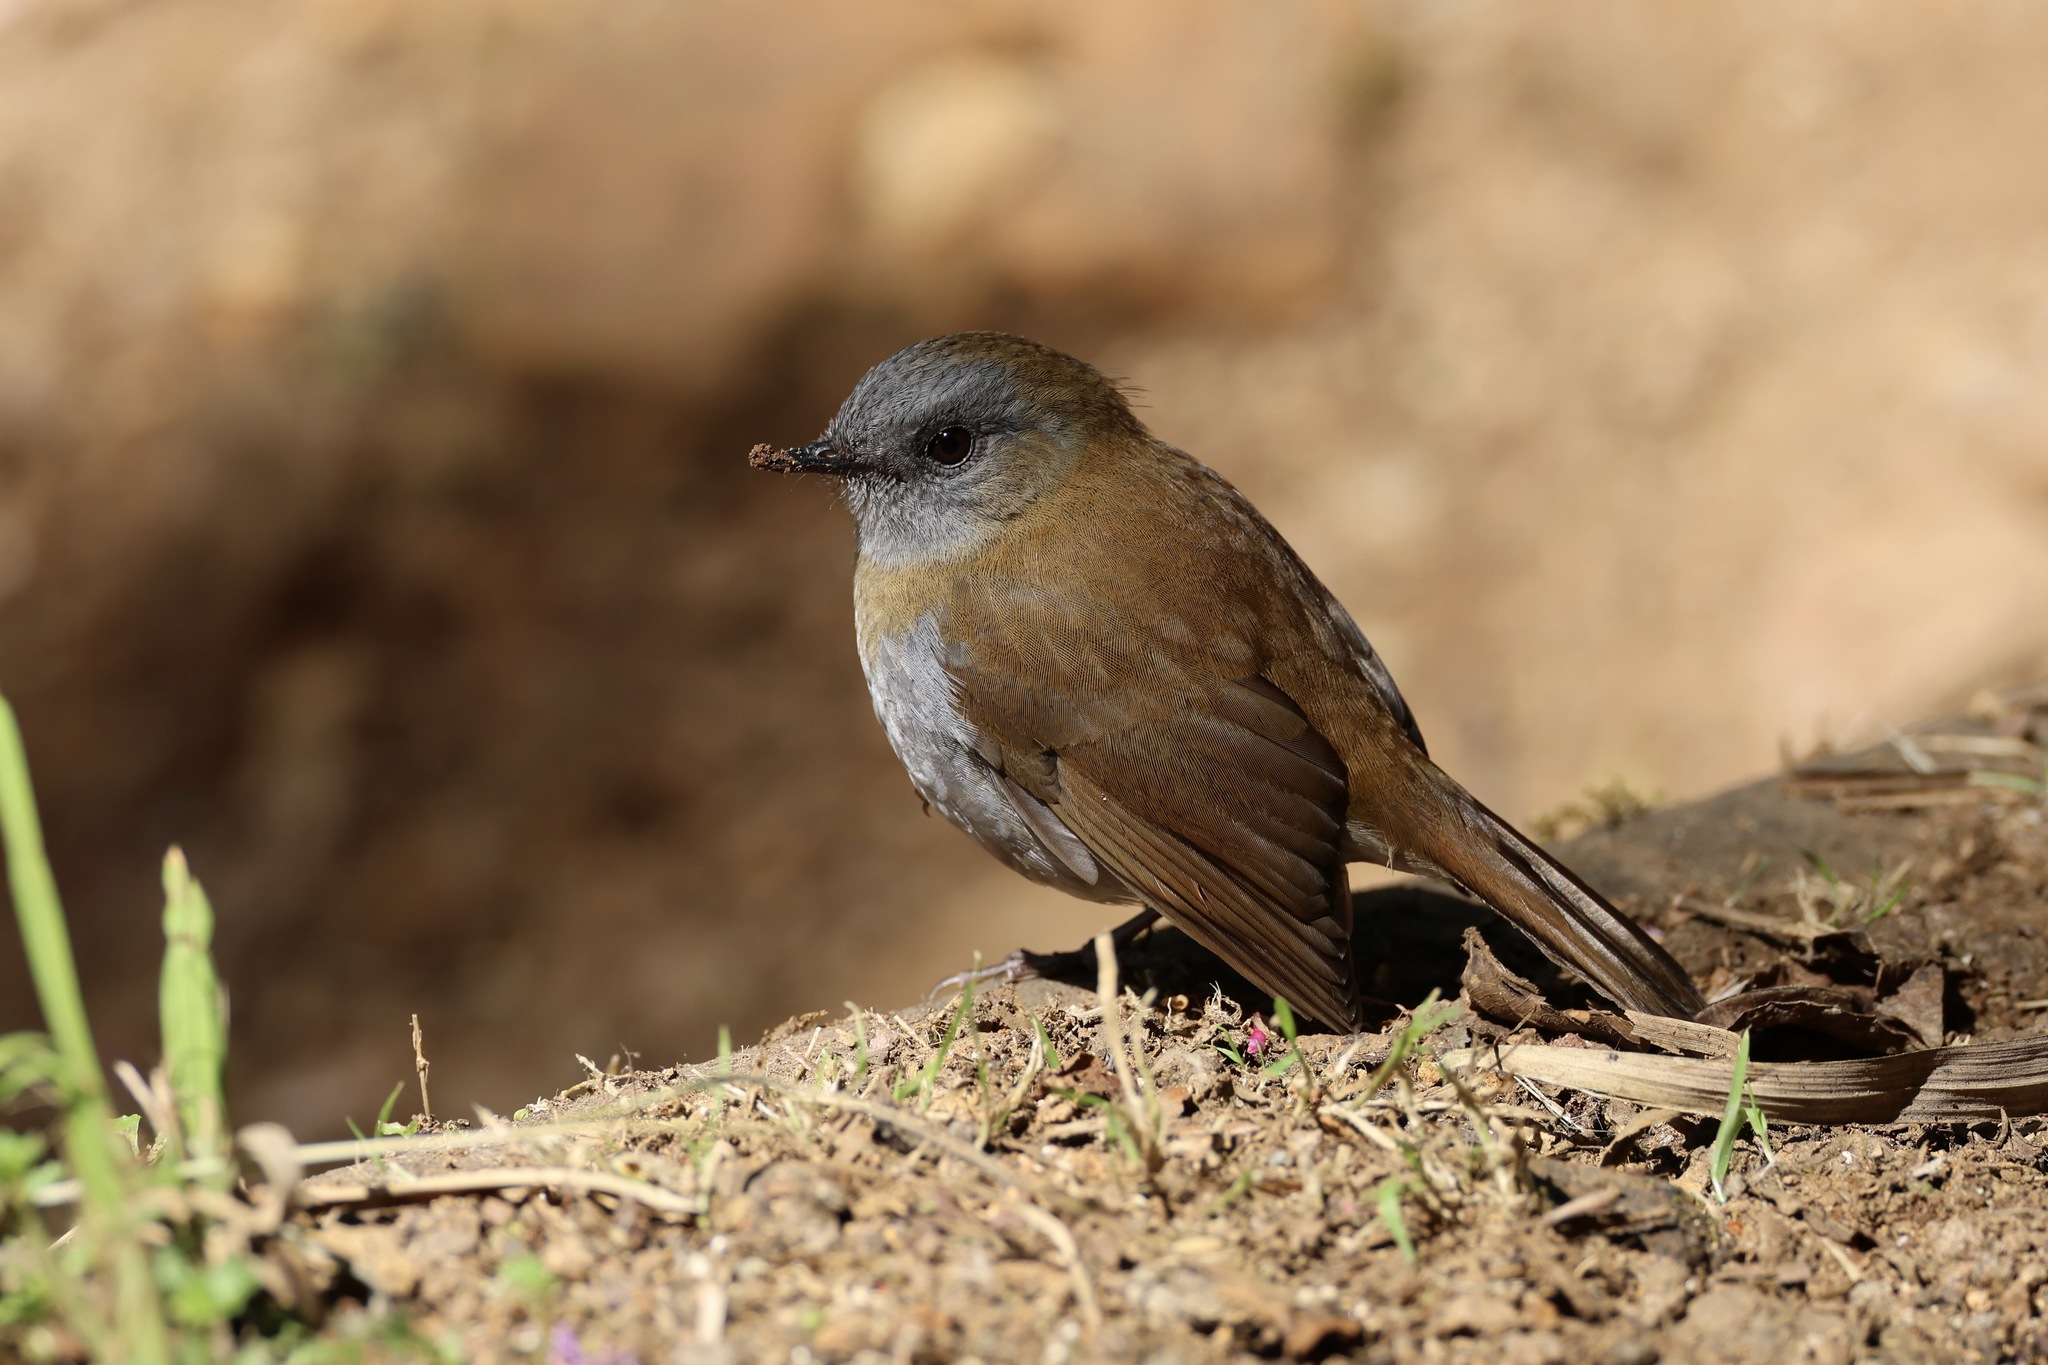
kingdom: Animalia
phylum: Chordata
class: Aves
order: Passeriformes
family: Turdidae
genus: Catharus
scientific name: Catharus gracilirostris
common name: Black-billed nightingale-thrush
